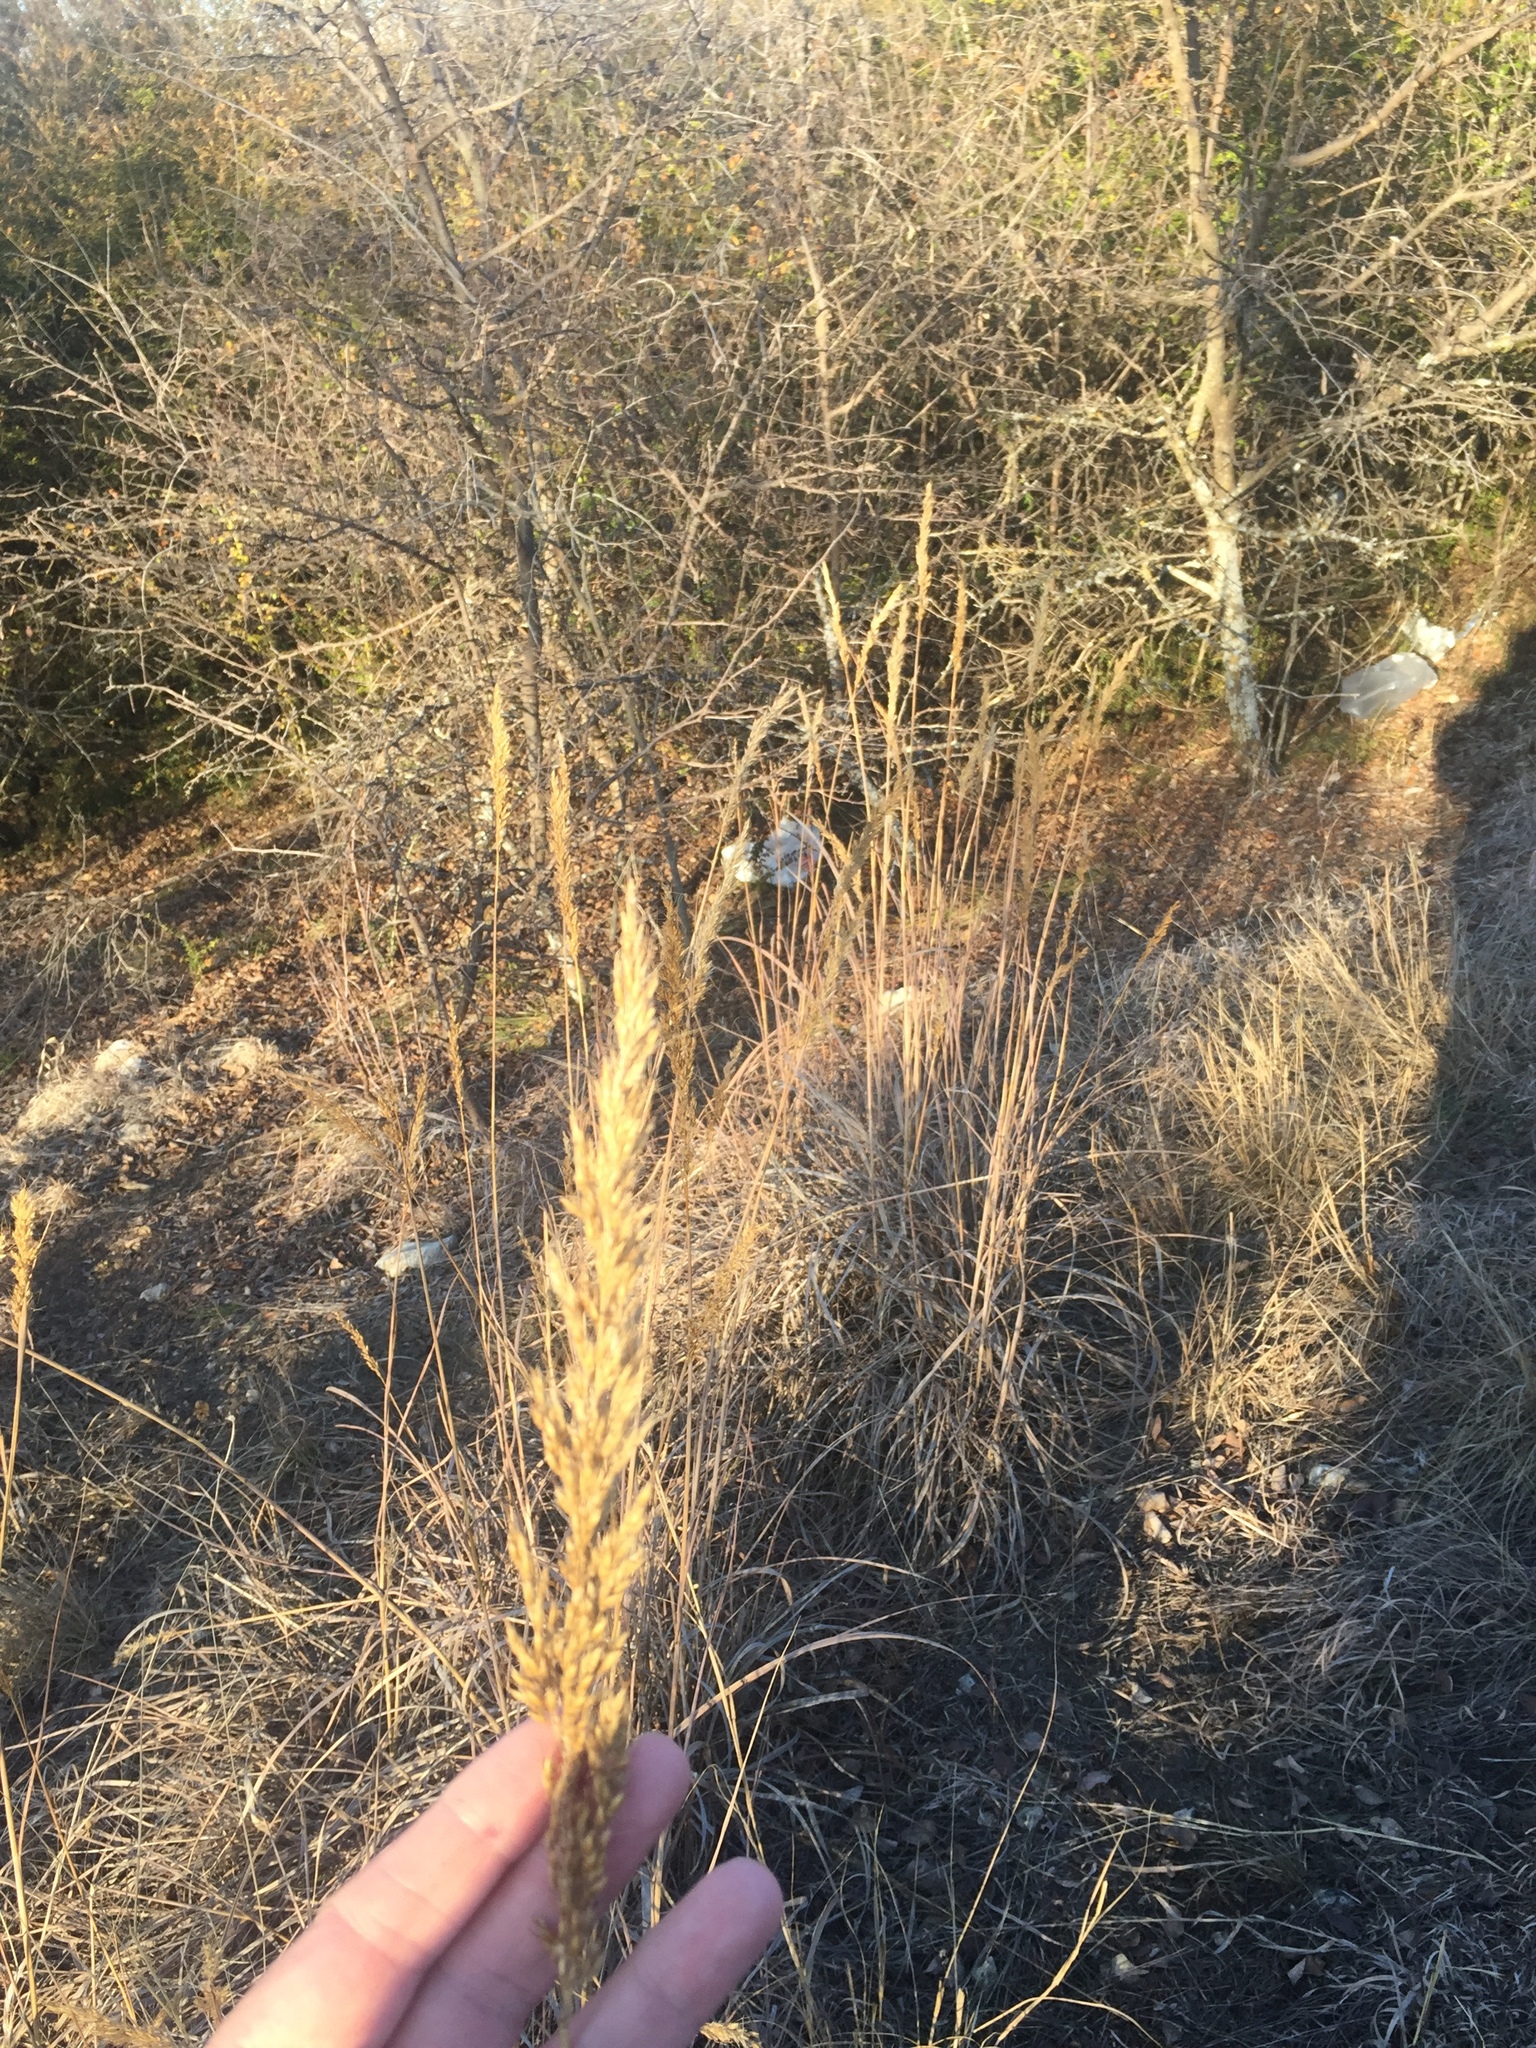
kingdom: Plantae
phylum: Tracheophyta
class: Liliopsida
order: Poales
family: Poaceae
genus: Sorghastrum
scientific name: Sorghastrum nutans
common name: Indian grass
